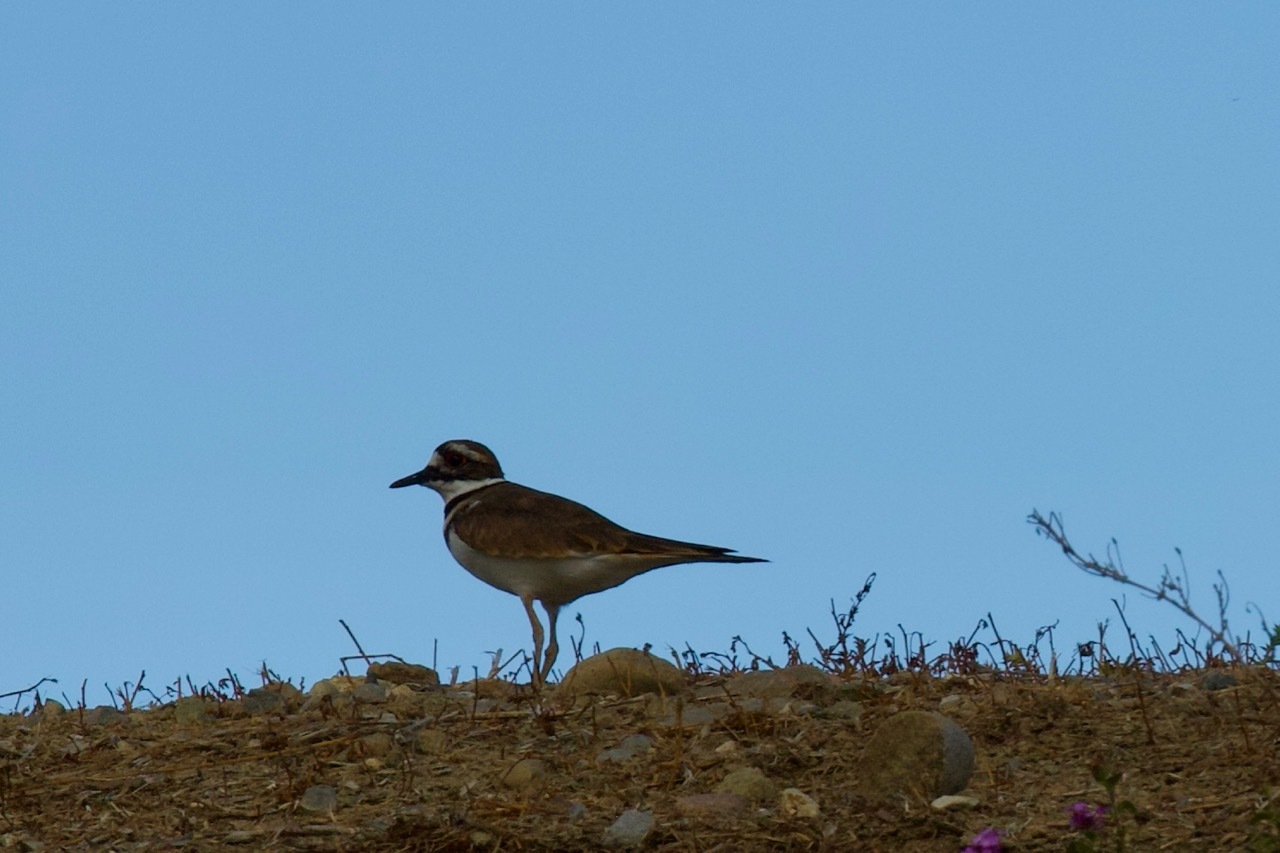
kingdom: Animalia
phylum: Chordata
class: Aves
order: Charadriiformes
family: Charadriidae
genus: Charadrius
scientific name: Charadrius vociferus
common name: Killdeer
